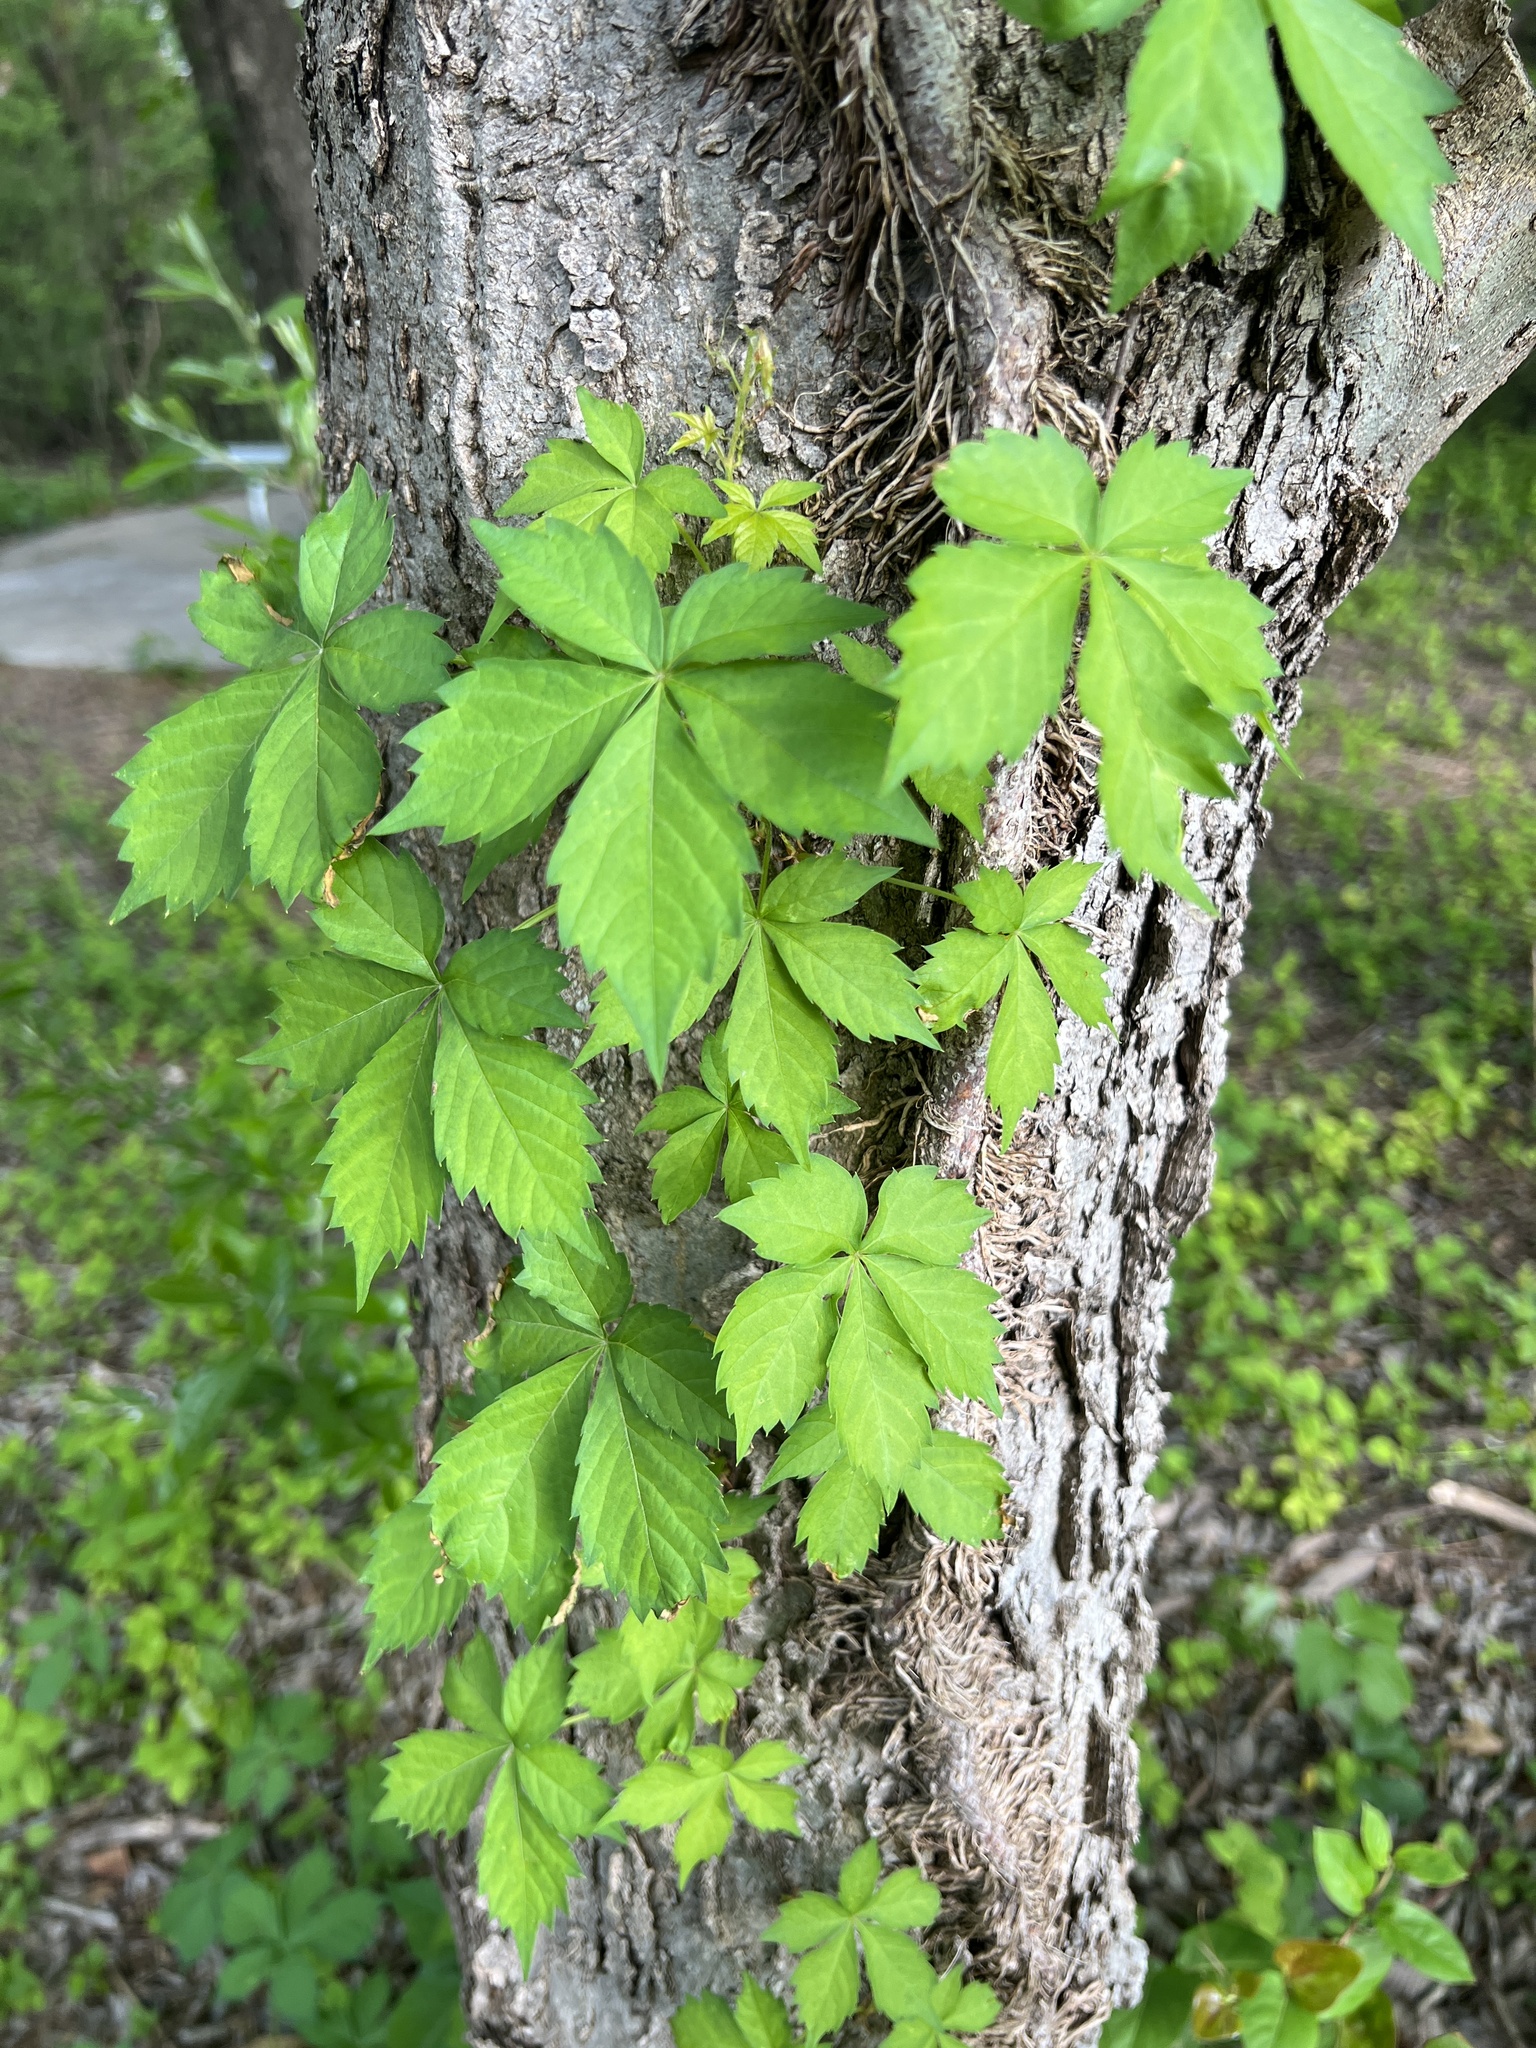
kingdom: Plantae
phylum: Tracheophyta
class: Magnoliopsida
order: Vitales
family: Vitaceae
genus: Parthenocissus
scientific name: Parthenocissus quinquefolia
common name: Virginia-creeper
